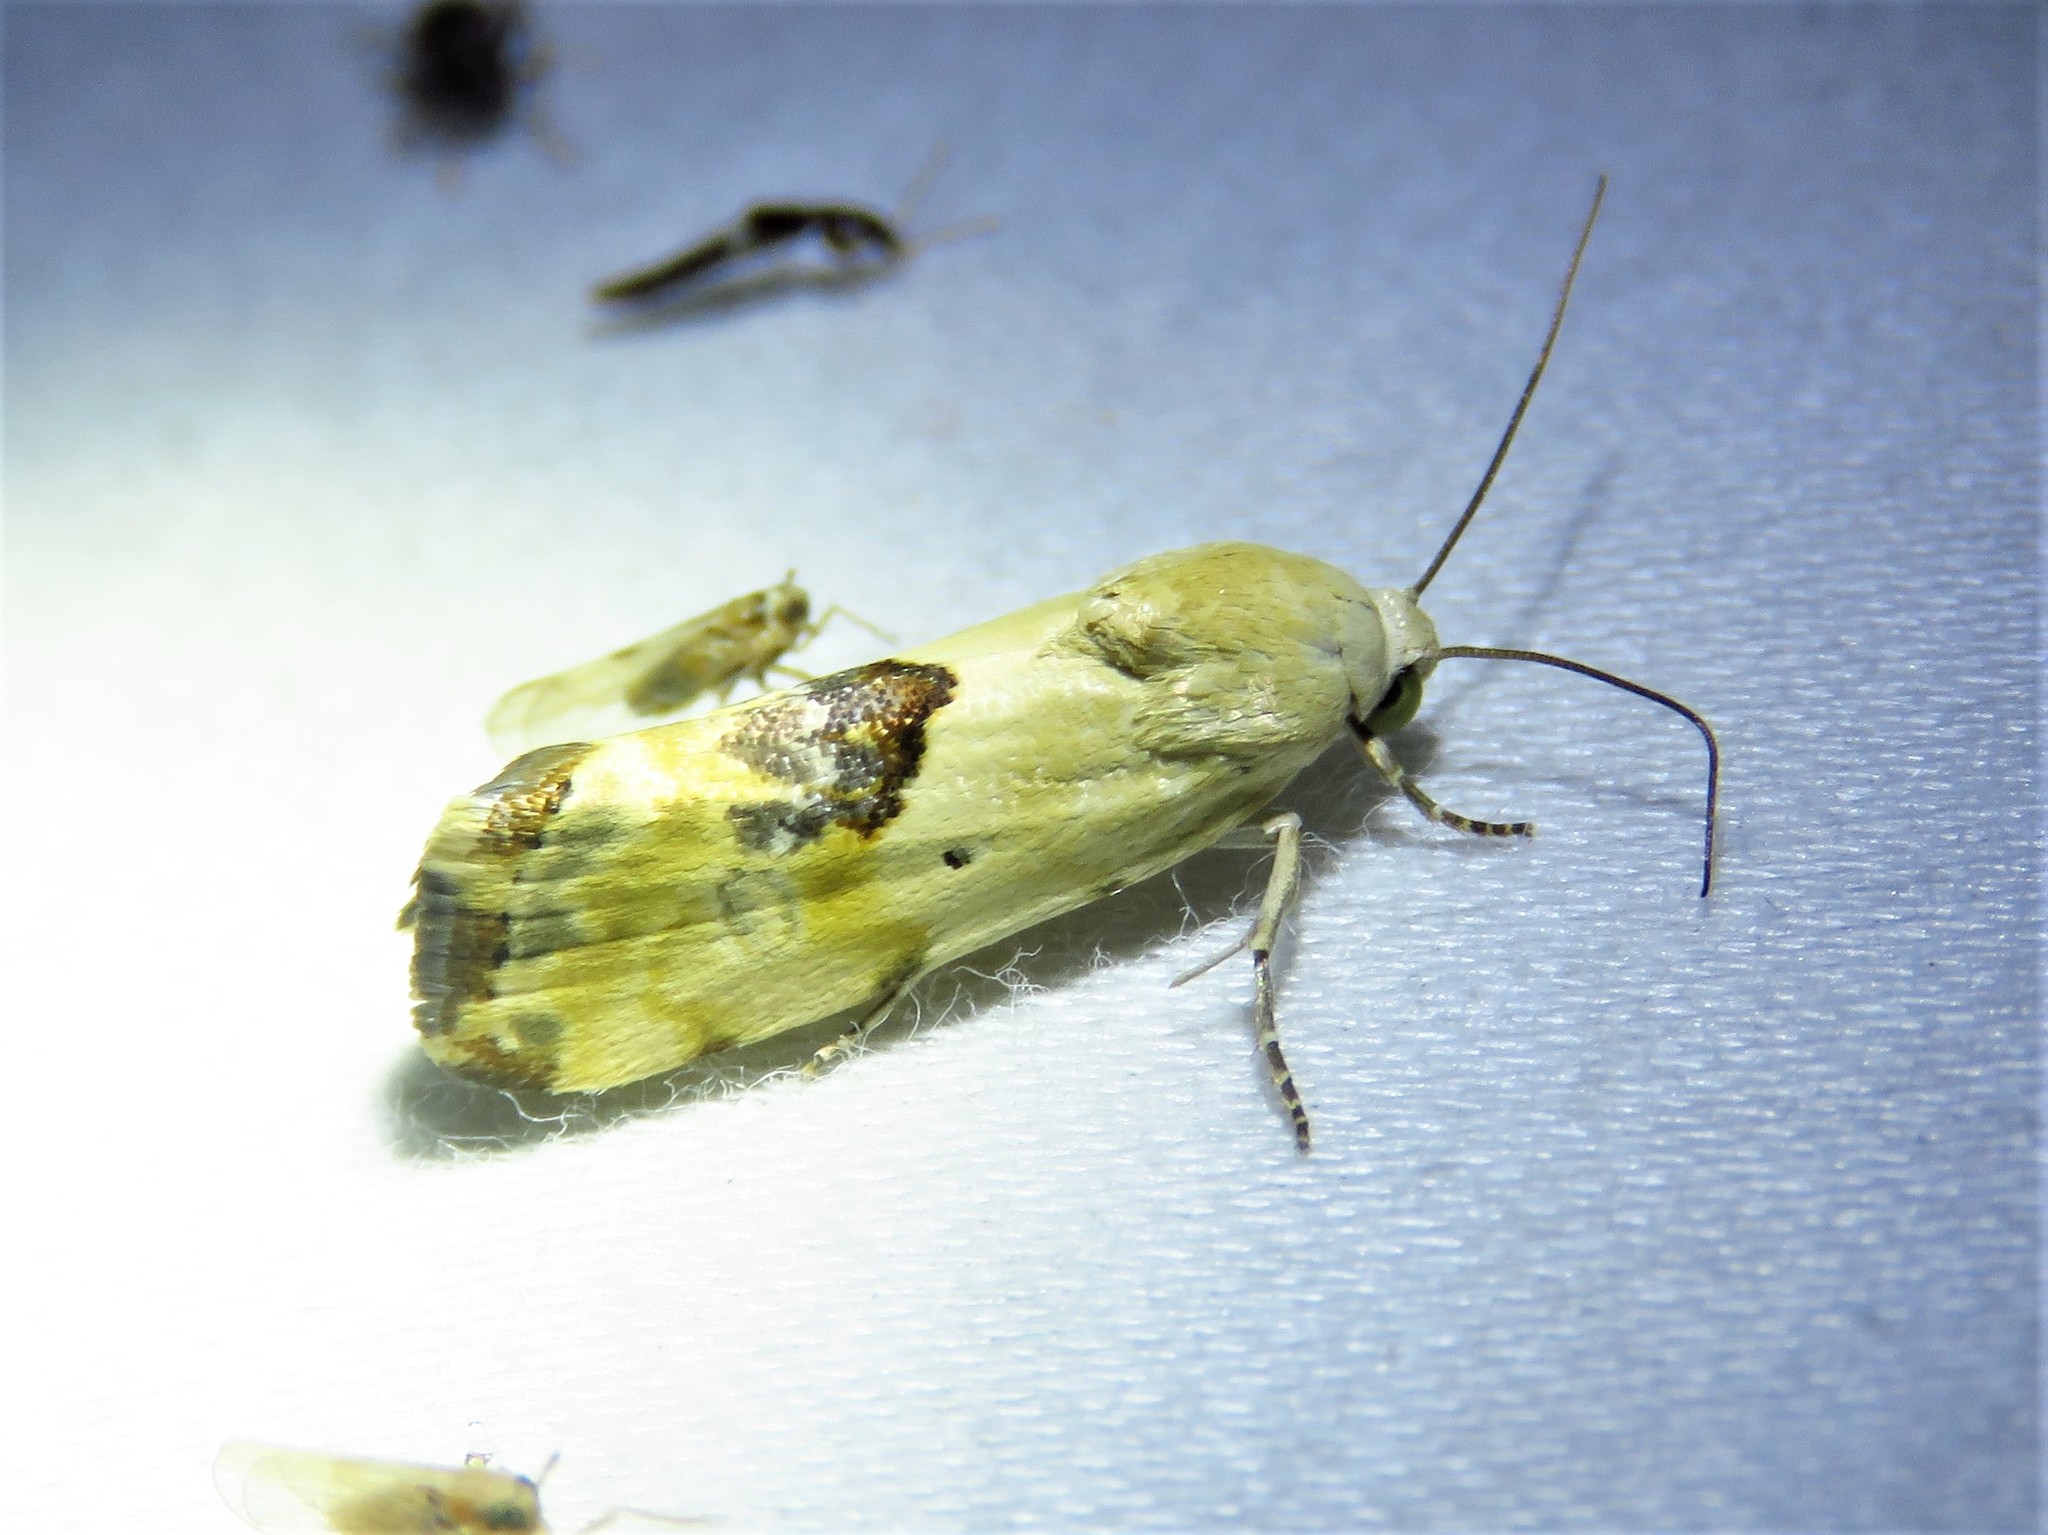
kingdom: Animalia
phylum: Arthropoda
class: Insecta
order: Lepidoptera
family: Noctuidae
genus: Acontia
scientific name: Acontia libedis
